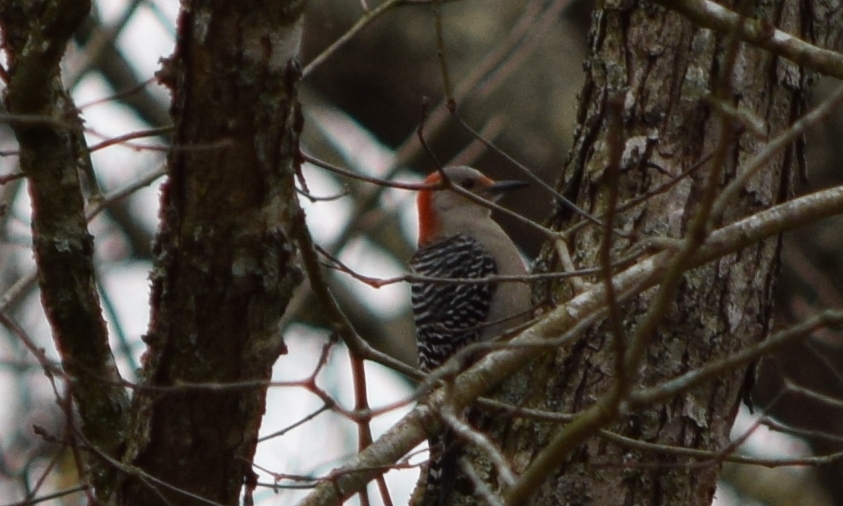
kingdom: Animalia
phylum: Chordata
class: Aves
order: Piciformes
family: Picidae
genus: Melanerpes
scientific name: Melanerpes carolinus
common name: Red-bellied woodpecker
